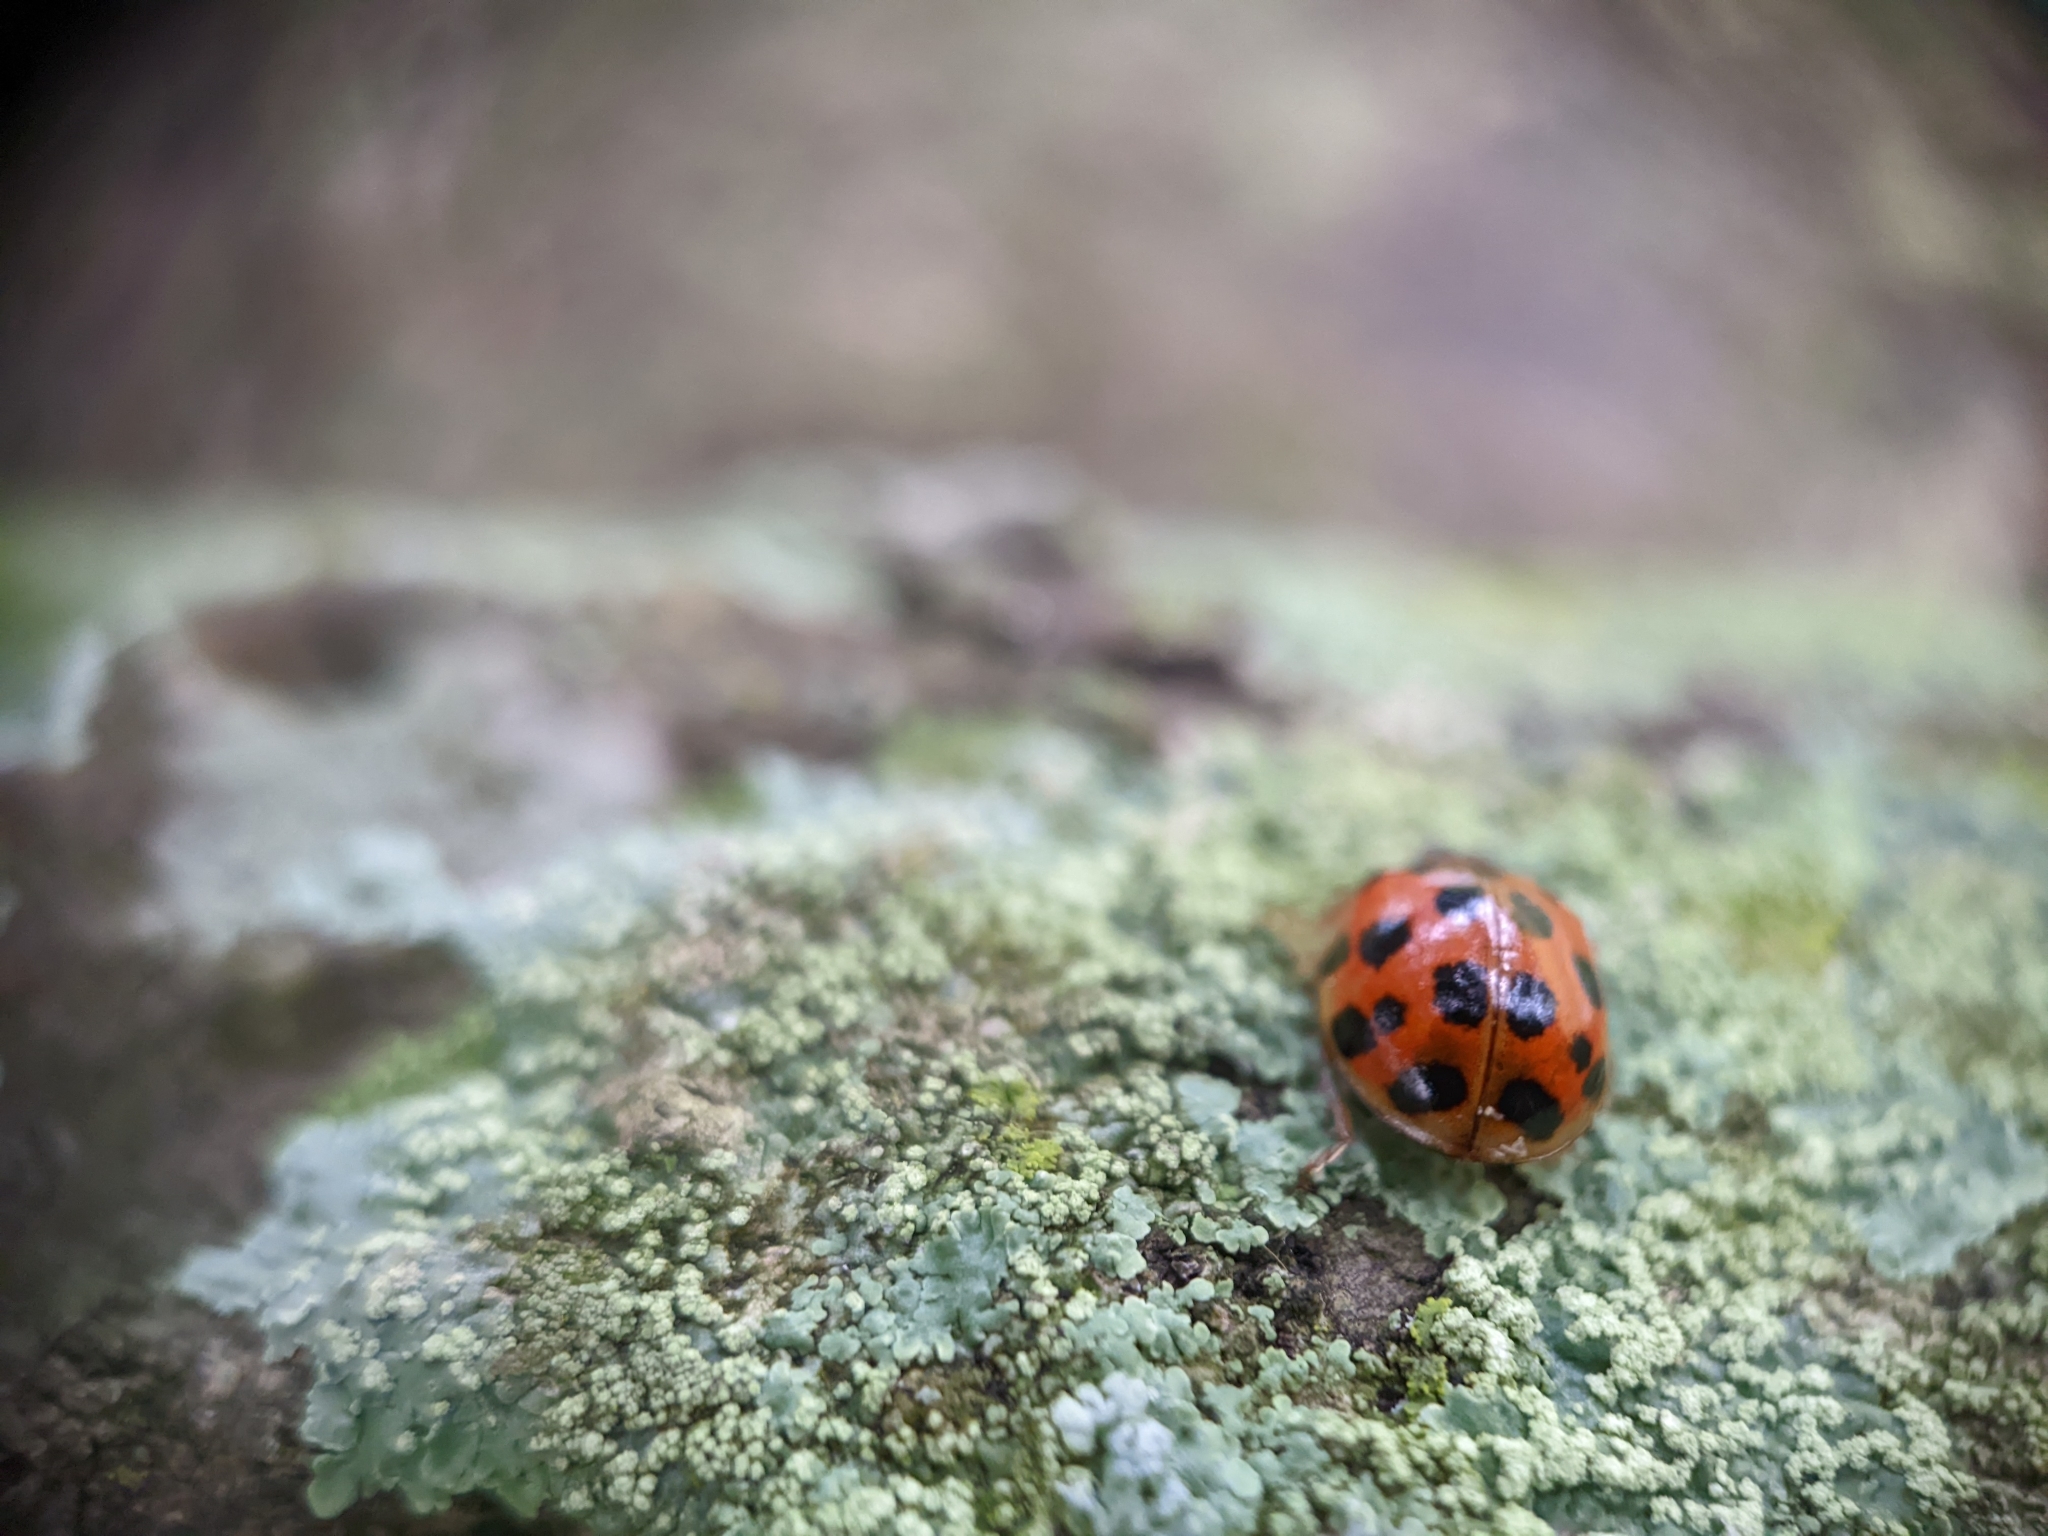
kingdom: Animalia
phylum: Arthropoda
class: Insecta
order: Coleoptera
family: Coccinellidae
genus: Harmonia
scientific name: Harmonia axyridis
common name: Harlequin ladybird
